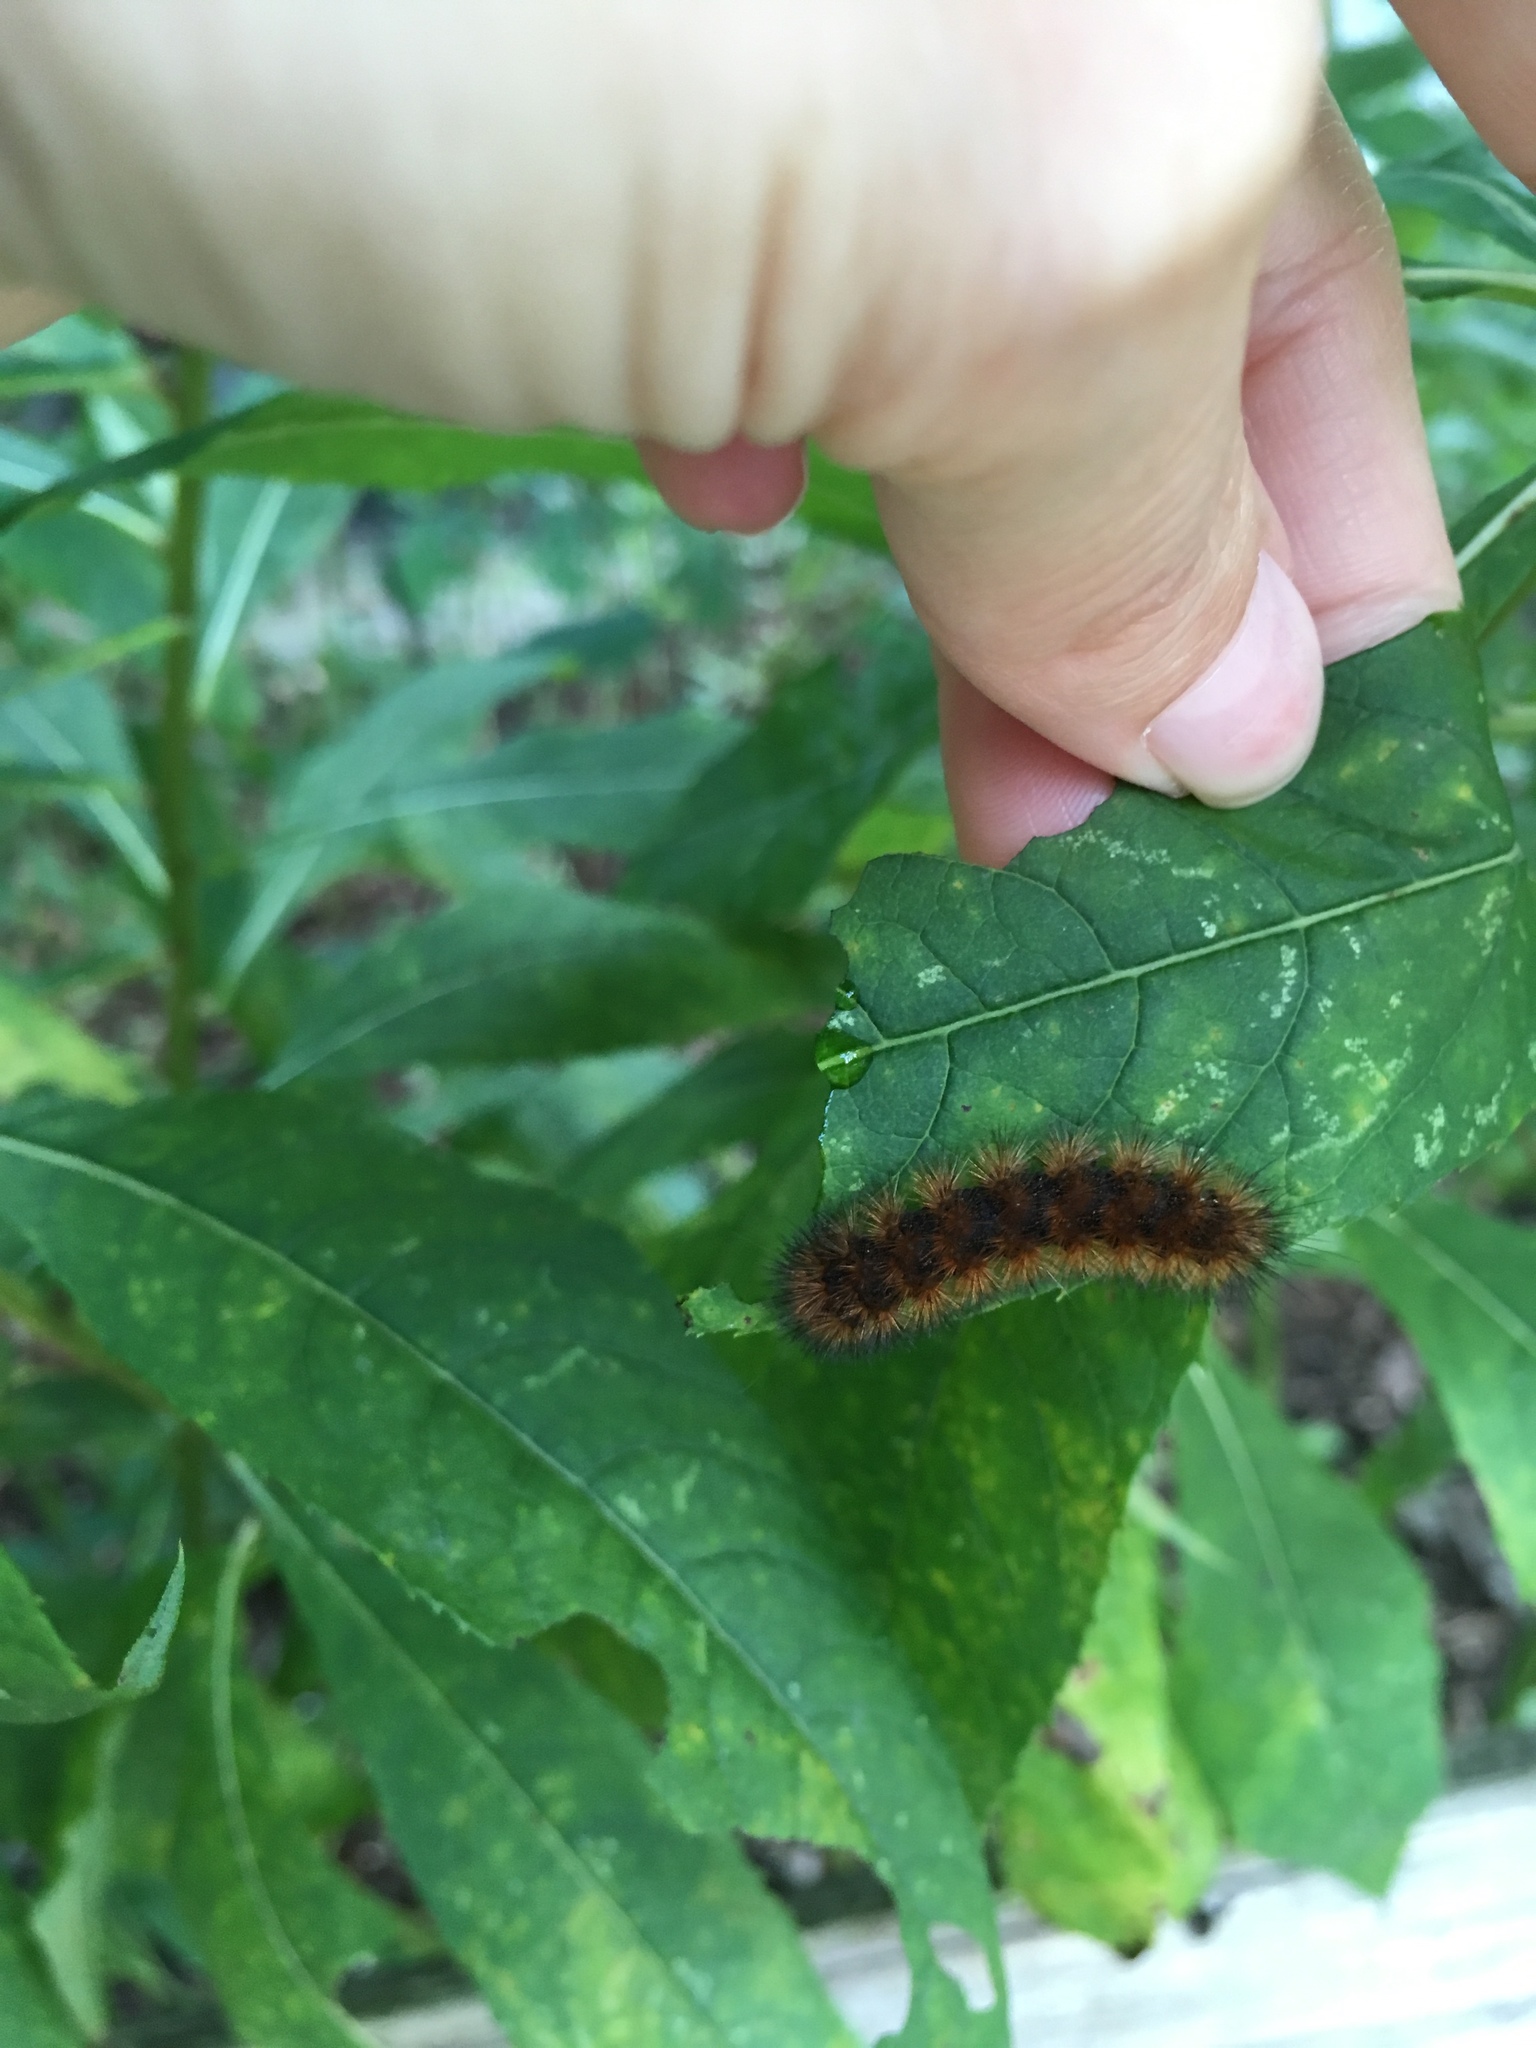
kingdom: Animalia
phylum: Arthropoda
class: Insecta
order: Lepidoptera
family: Erebidae
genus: Pyrrharctia
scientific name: Pyrrharctia isabella
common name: Isabella tiger moth
